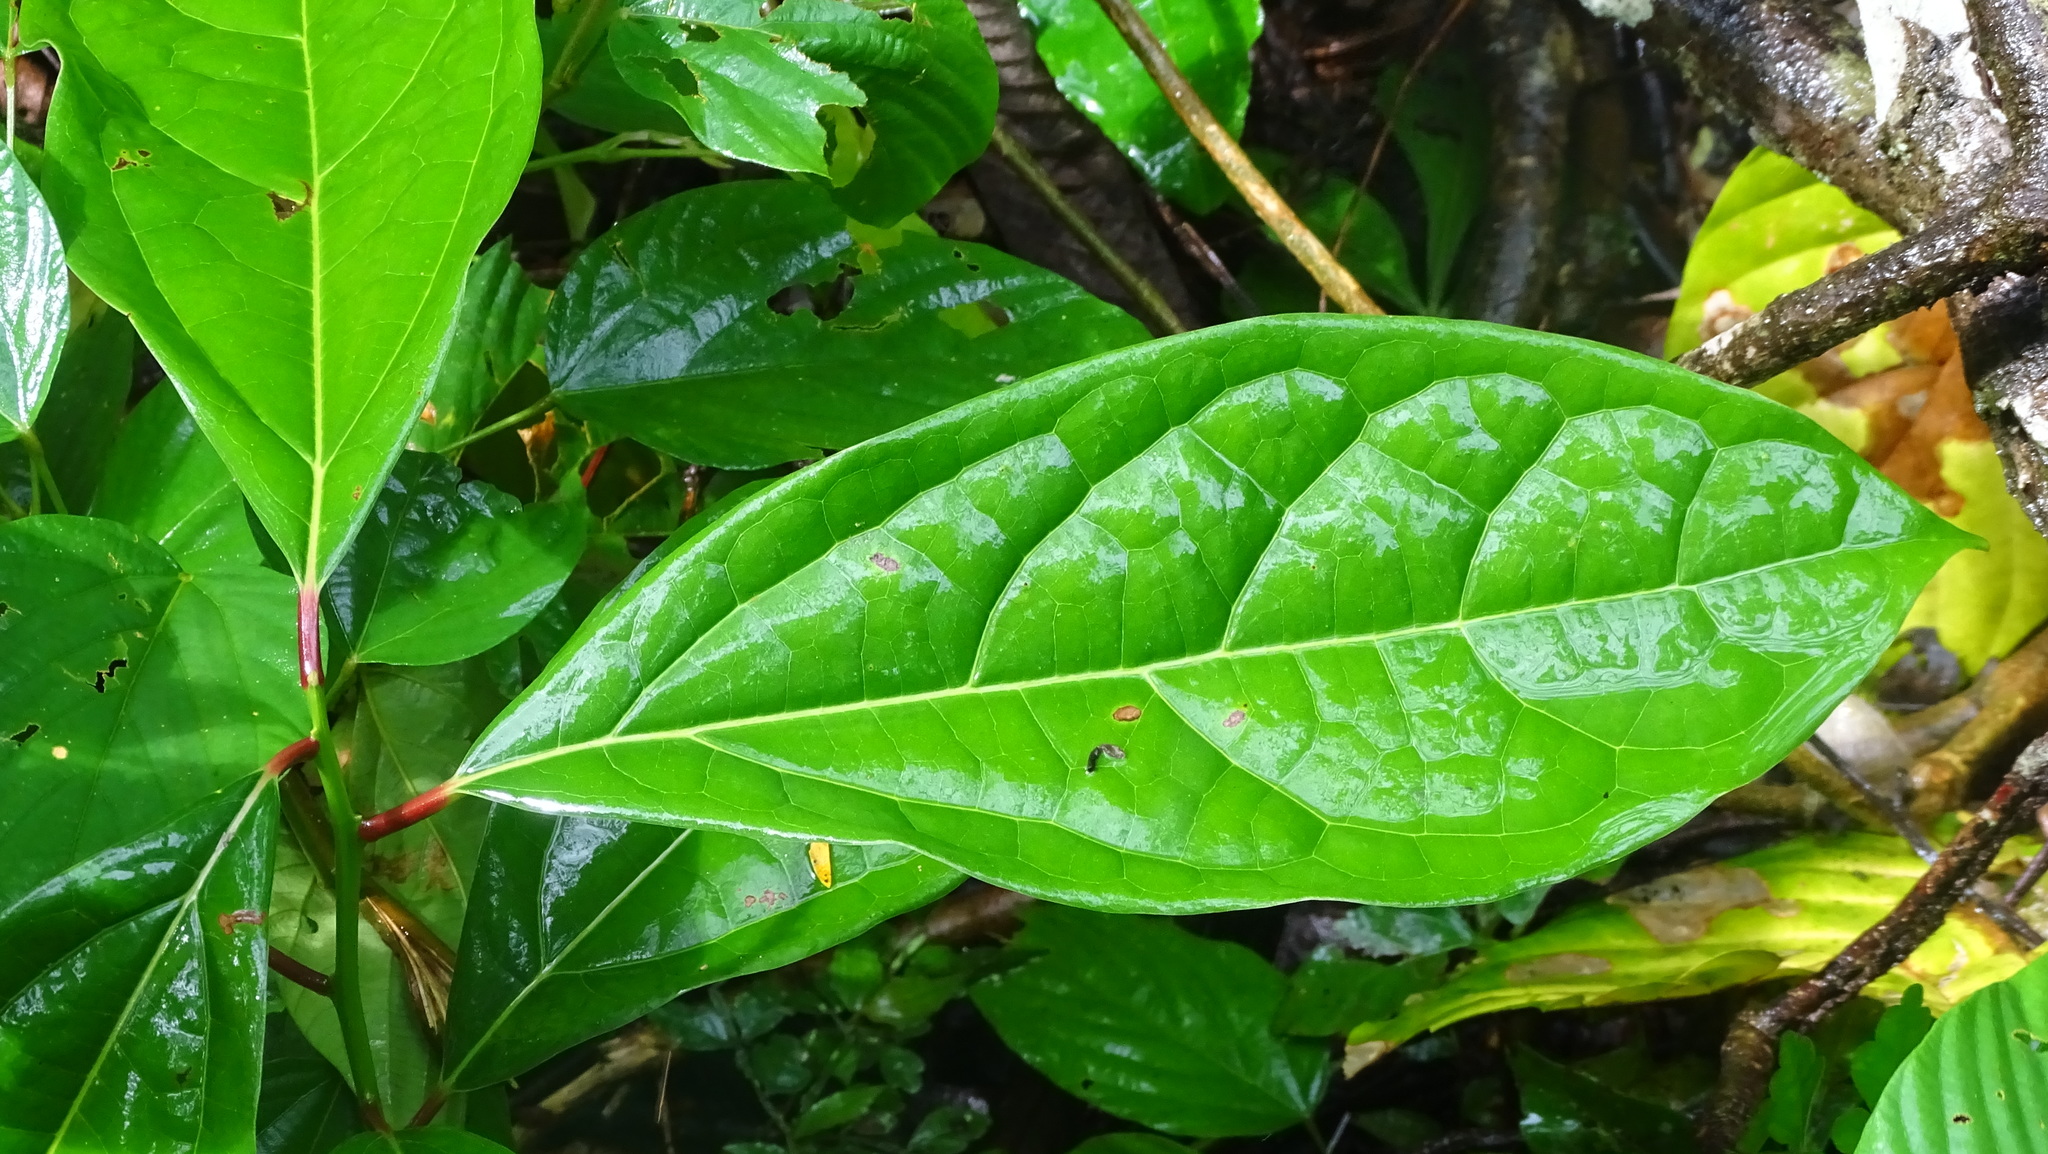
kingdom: Plantae
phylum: Tracheophyta
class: Magnoliopsida
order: Laurales
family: Lauraceae
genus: Aiouea
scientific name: Aiouea montana
